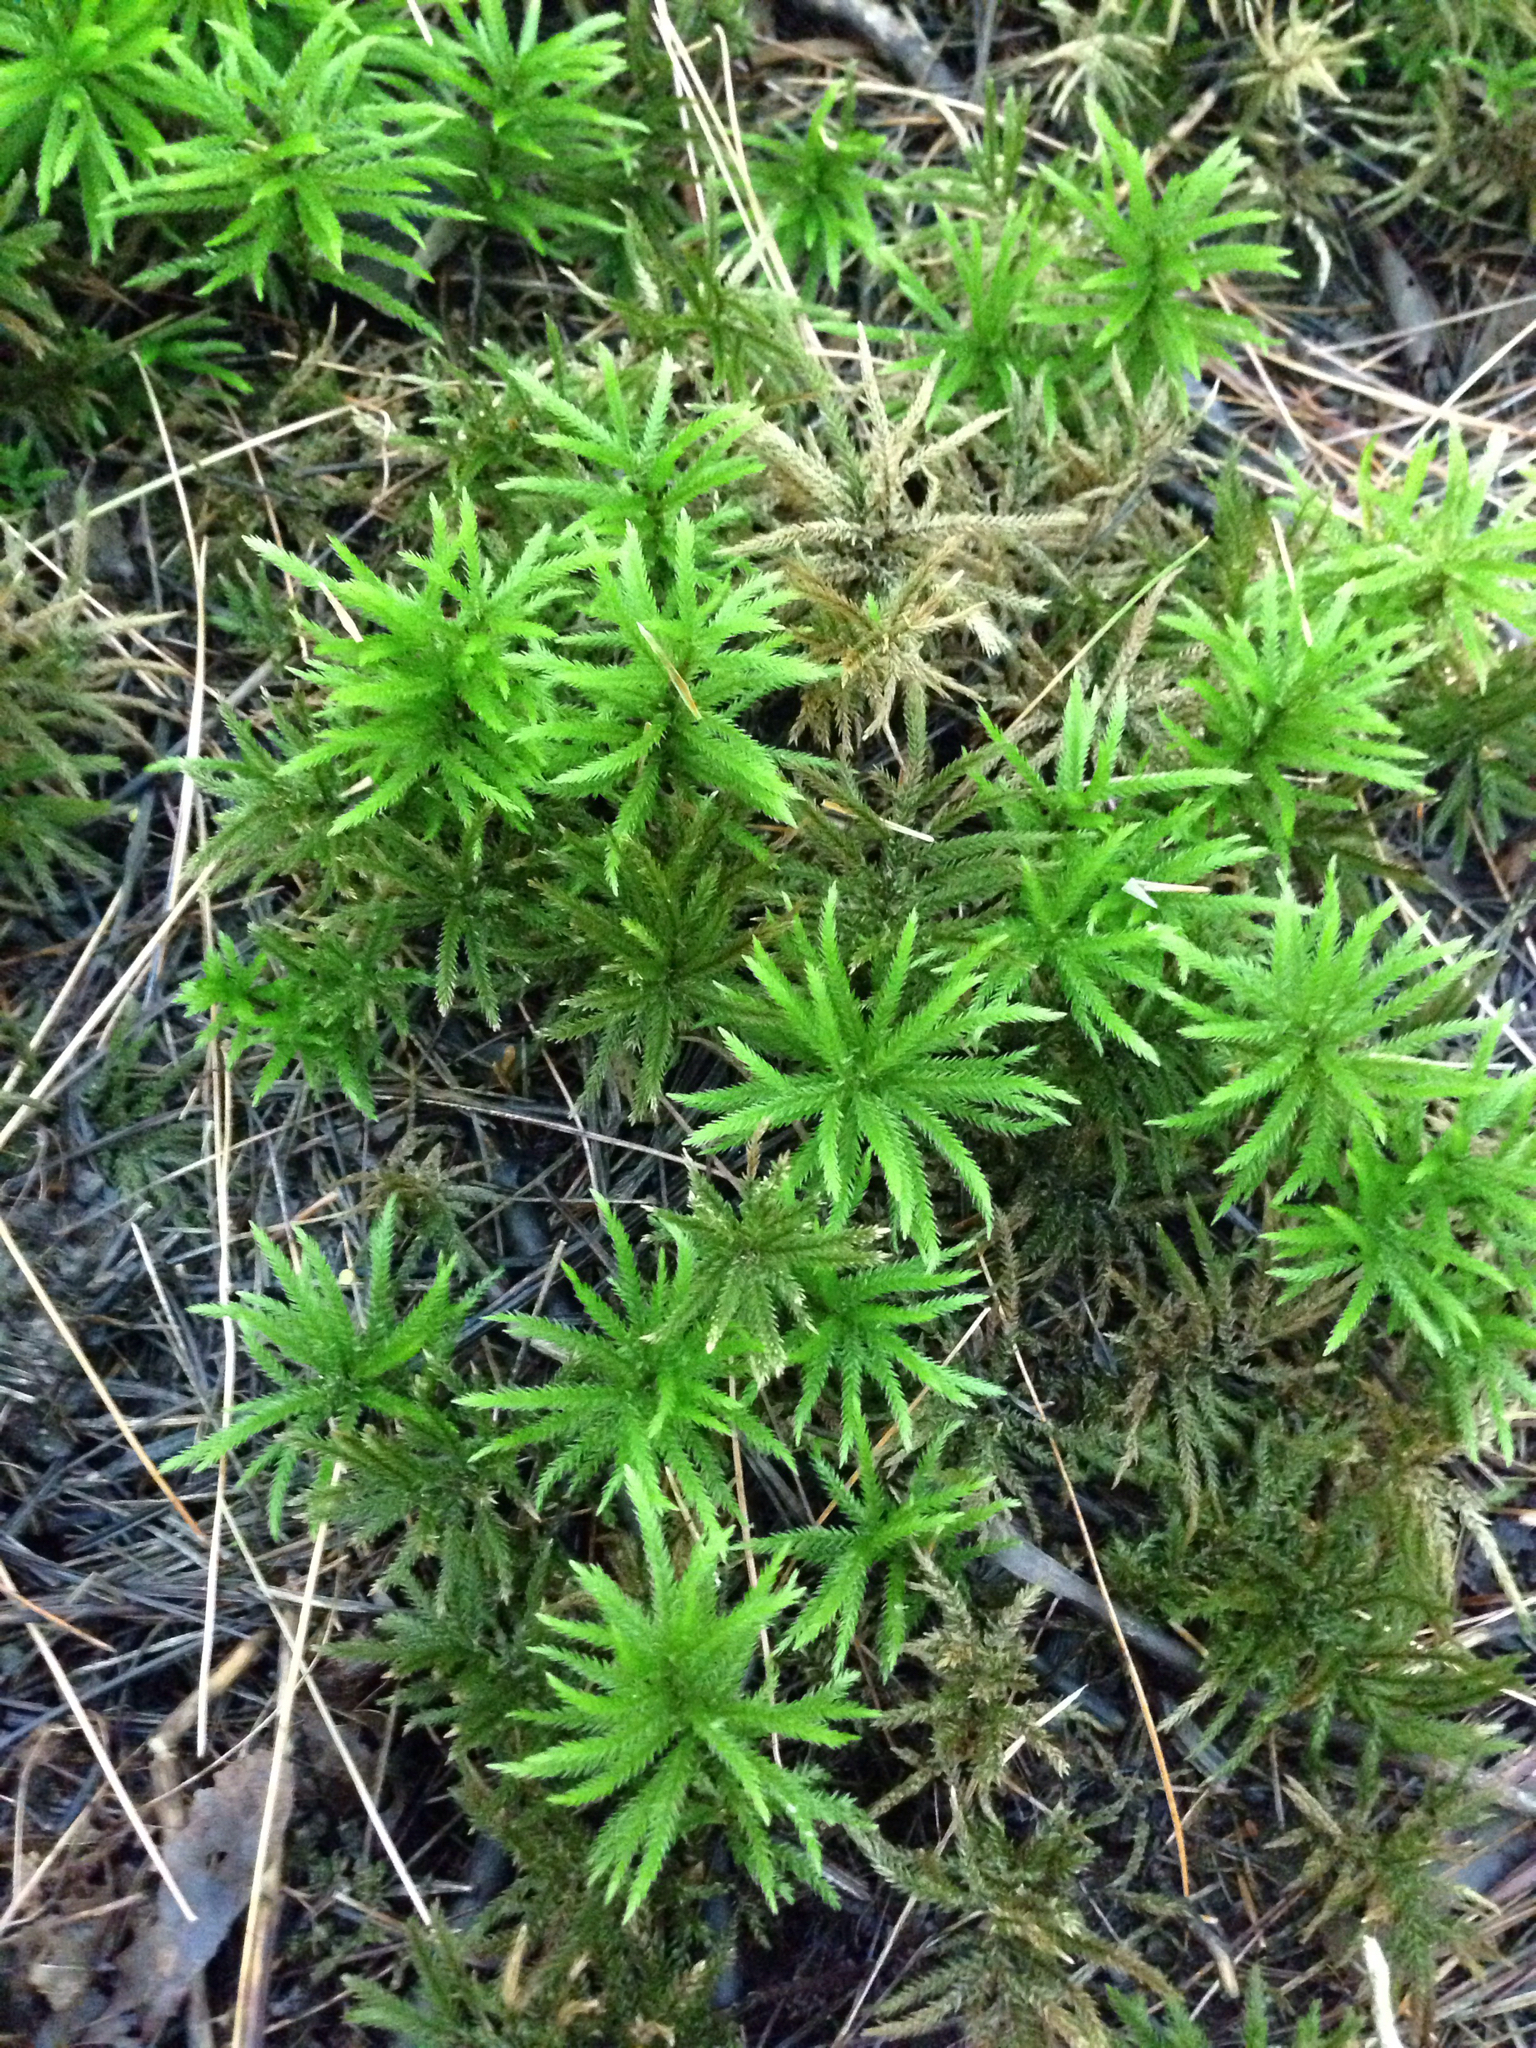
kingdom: Plantae
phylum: Bryophyta
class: Bryopsida
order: Hypnales
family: Climaciaceae
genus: Climacium
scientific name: Climacium americanum
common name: American tree moss
